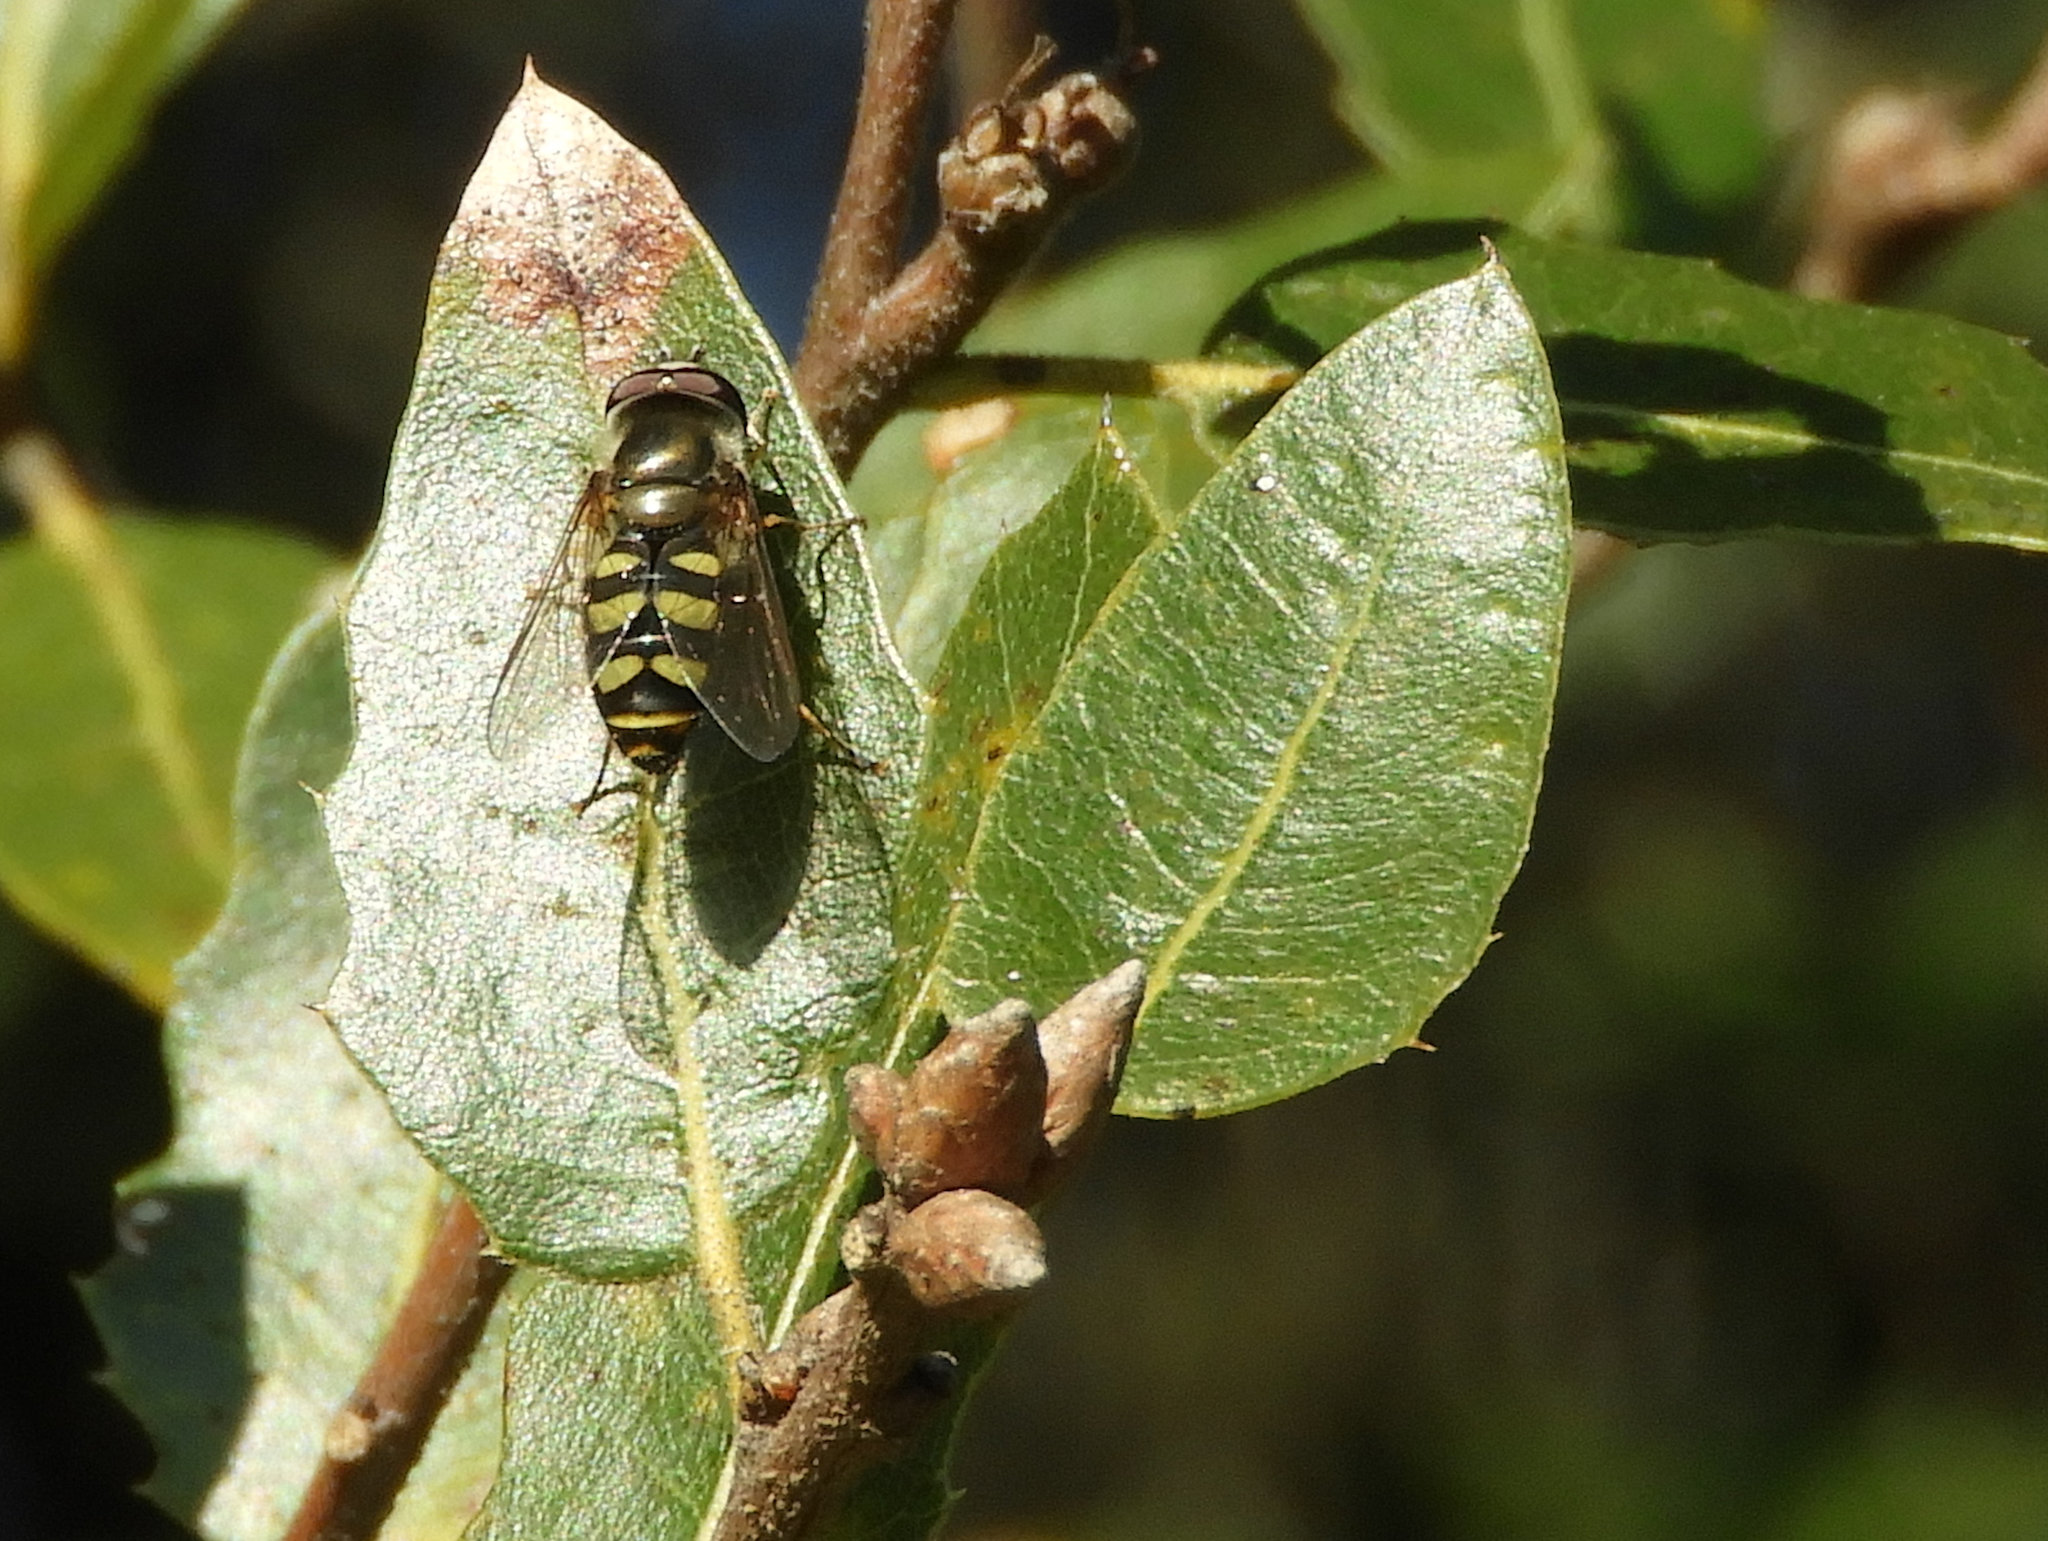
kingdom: Animalia
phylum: Arthropoda
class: Insecta
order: Diptera
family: Syrphidae
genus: Eupeodes
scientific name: Eupeodes fumipennis
